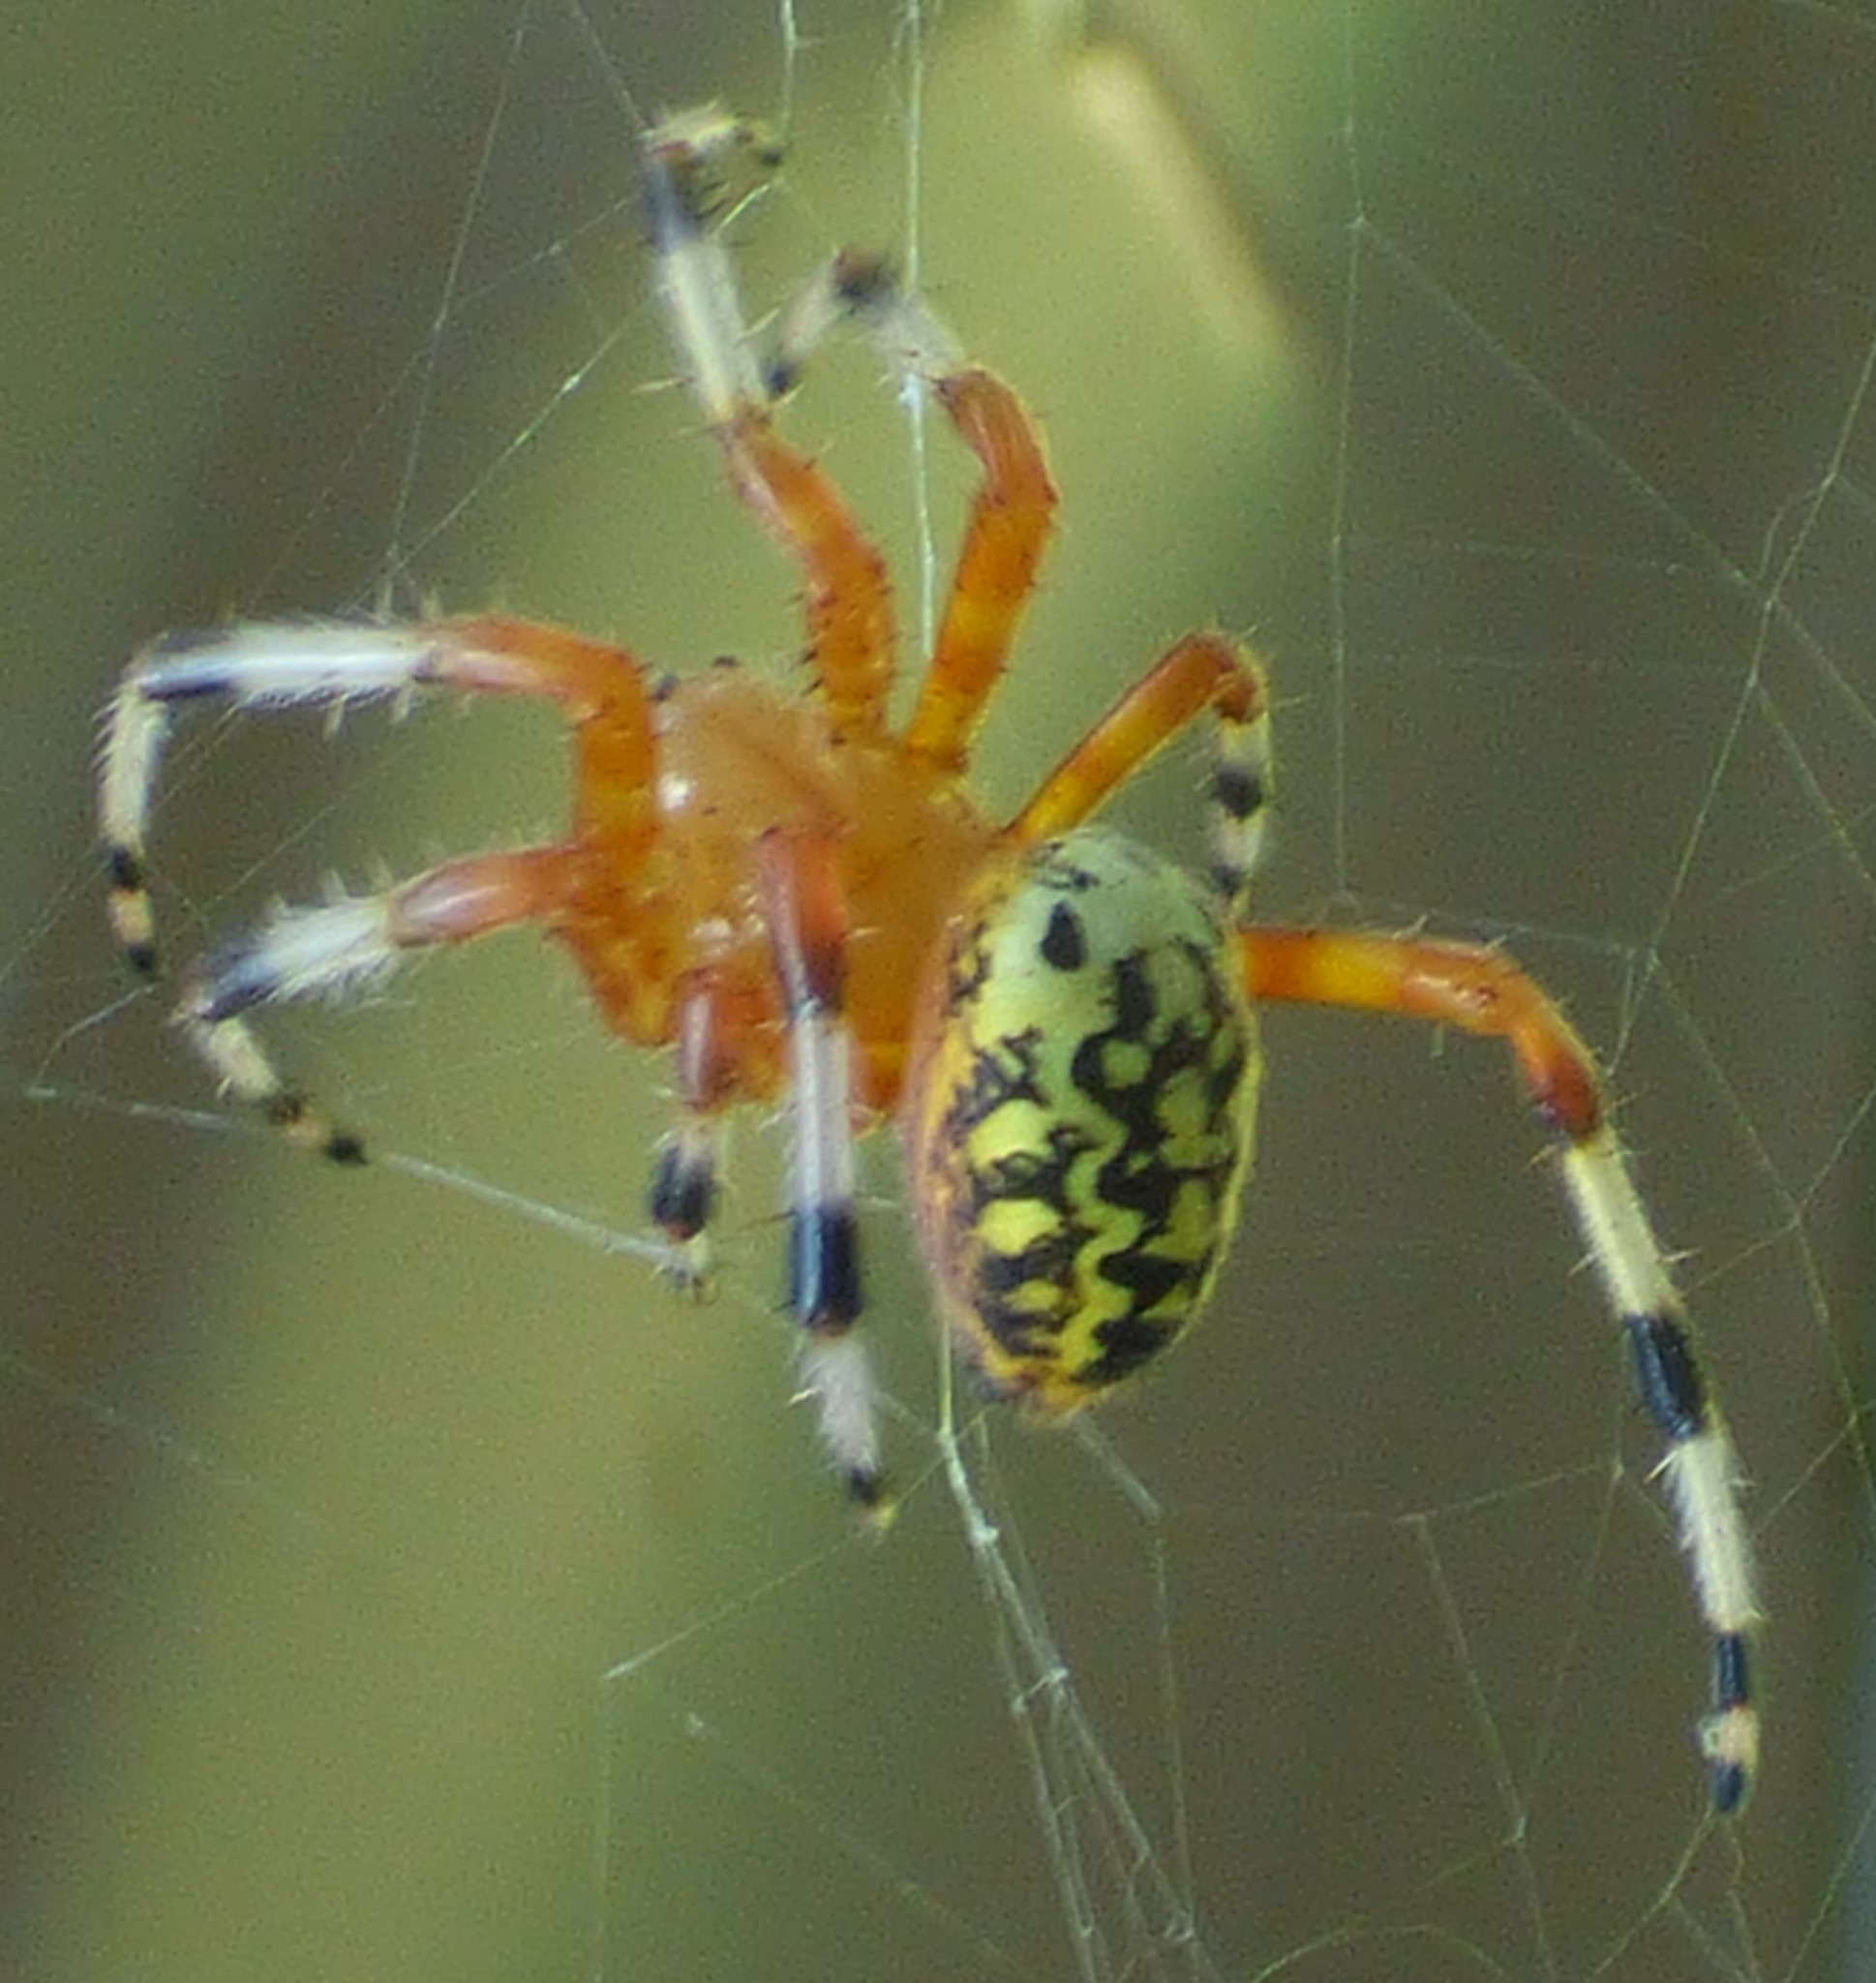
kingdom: Animalia
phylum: Arthropoda
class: Arachnida
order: Araneae
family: Araneidae
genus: Araneus
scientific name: Araneus marmoreus
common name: Marbled orbweaver
